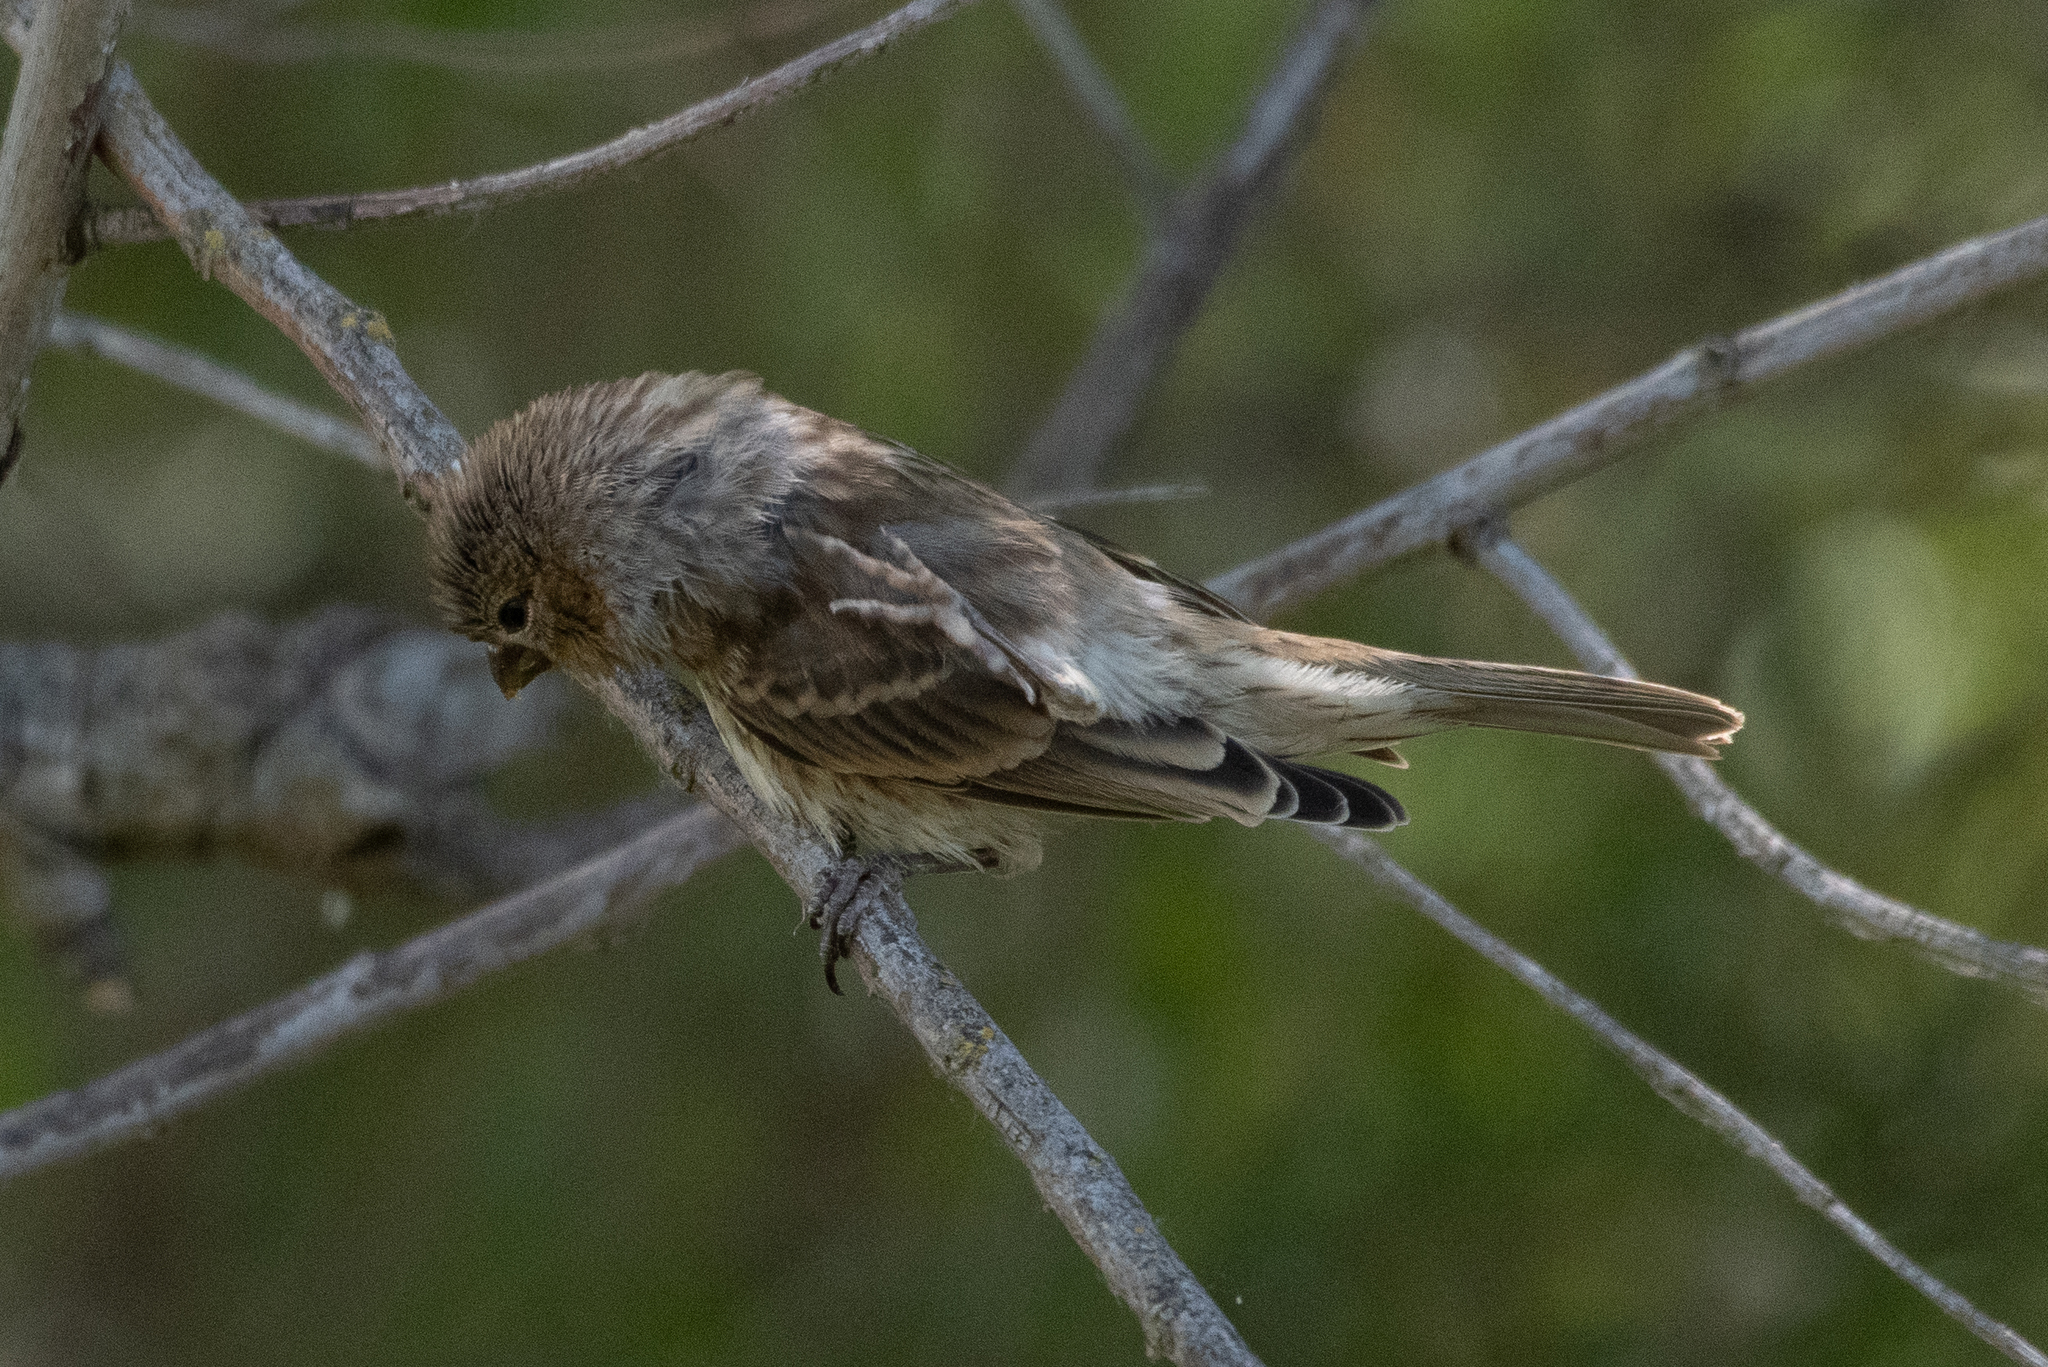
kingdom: Animalia
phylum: Chordata
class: Aves
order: Passeriformes
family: Fringillidae
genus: Haemorhous
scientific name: Haemorhous mexicanus
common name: House finch
